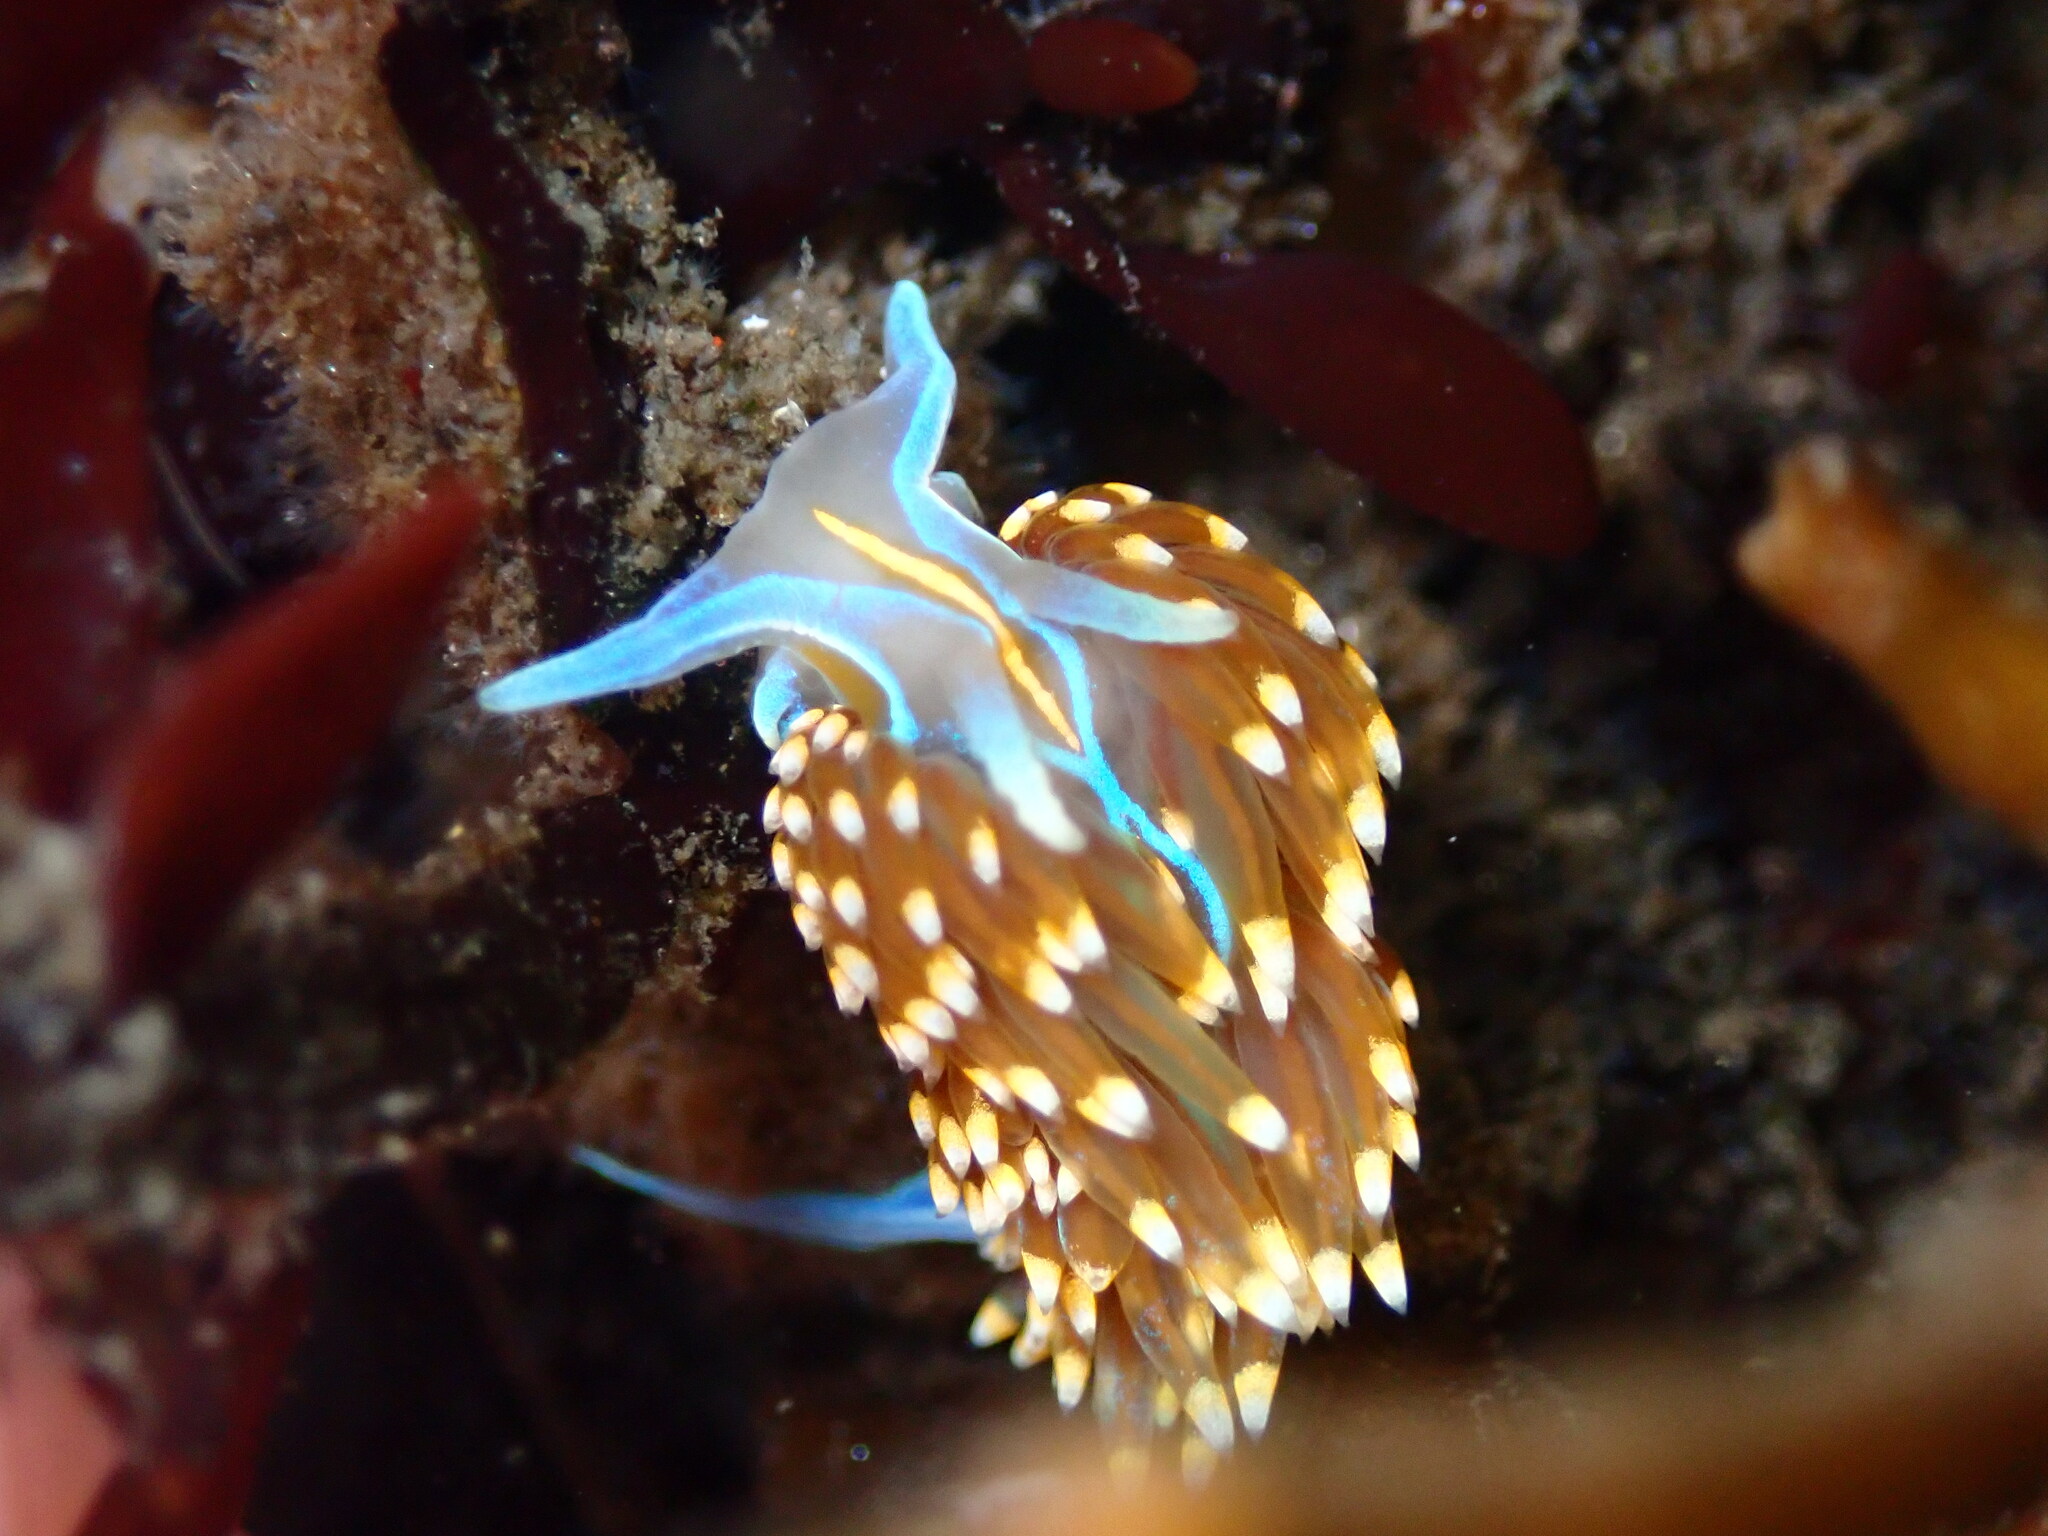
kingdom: Animalia
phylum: Mollusca
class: Gastropoda
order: Nudibranchia
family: Myrrhinidae
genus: Hermissenda
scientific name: Hermissenda opalescens
